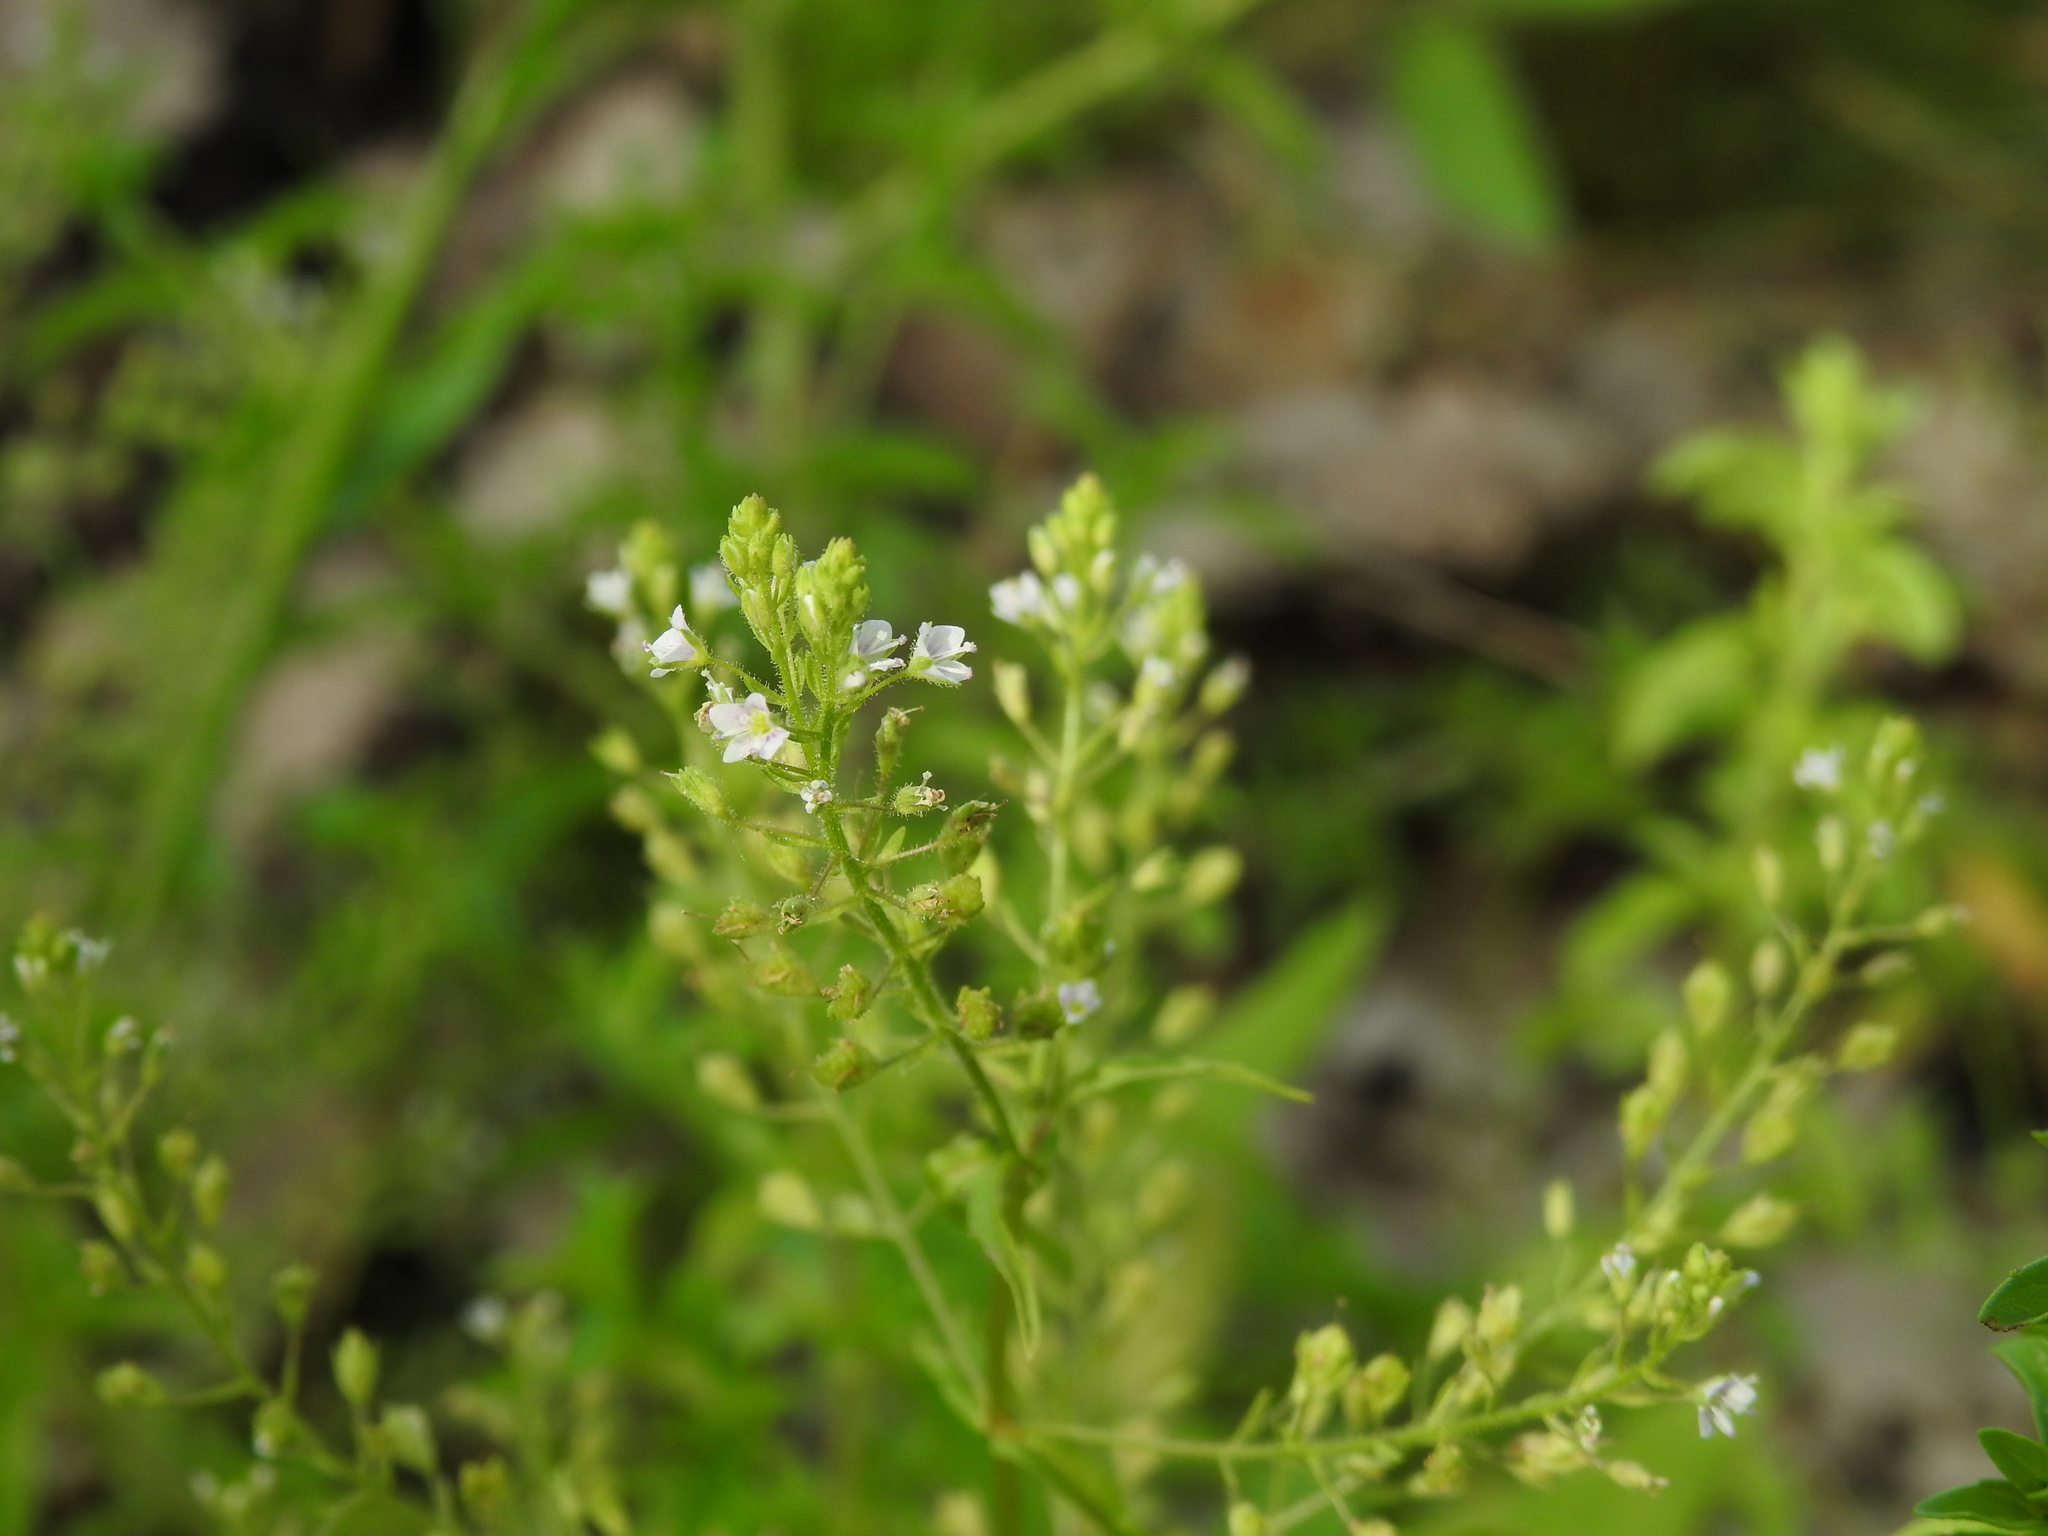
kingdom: Plantae
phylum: Tracheophyta
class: Magnoliopsida
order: Lamiales
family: Plantaginaceae
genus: Veronica
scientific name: Veronica anagalloides
